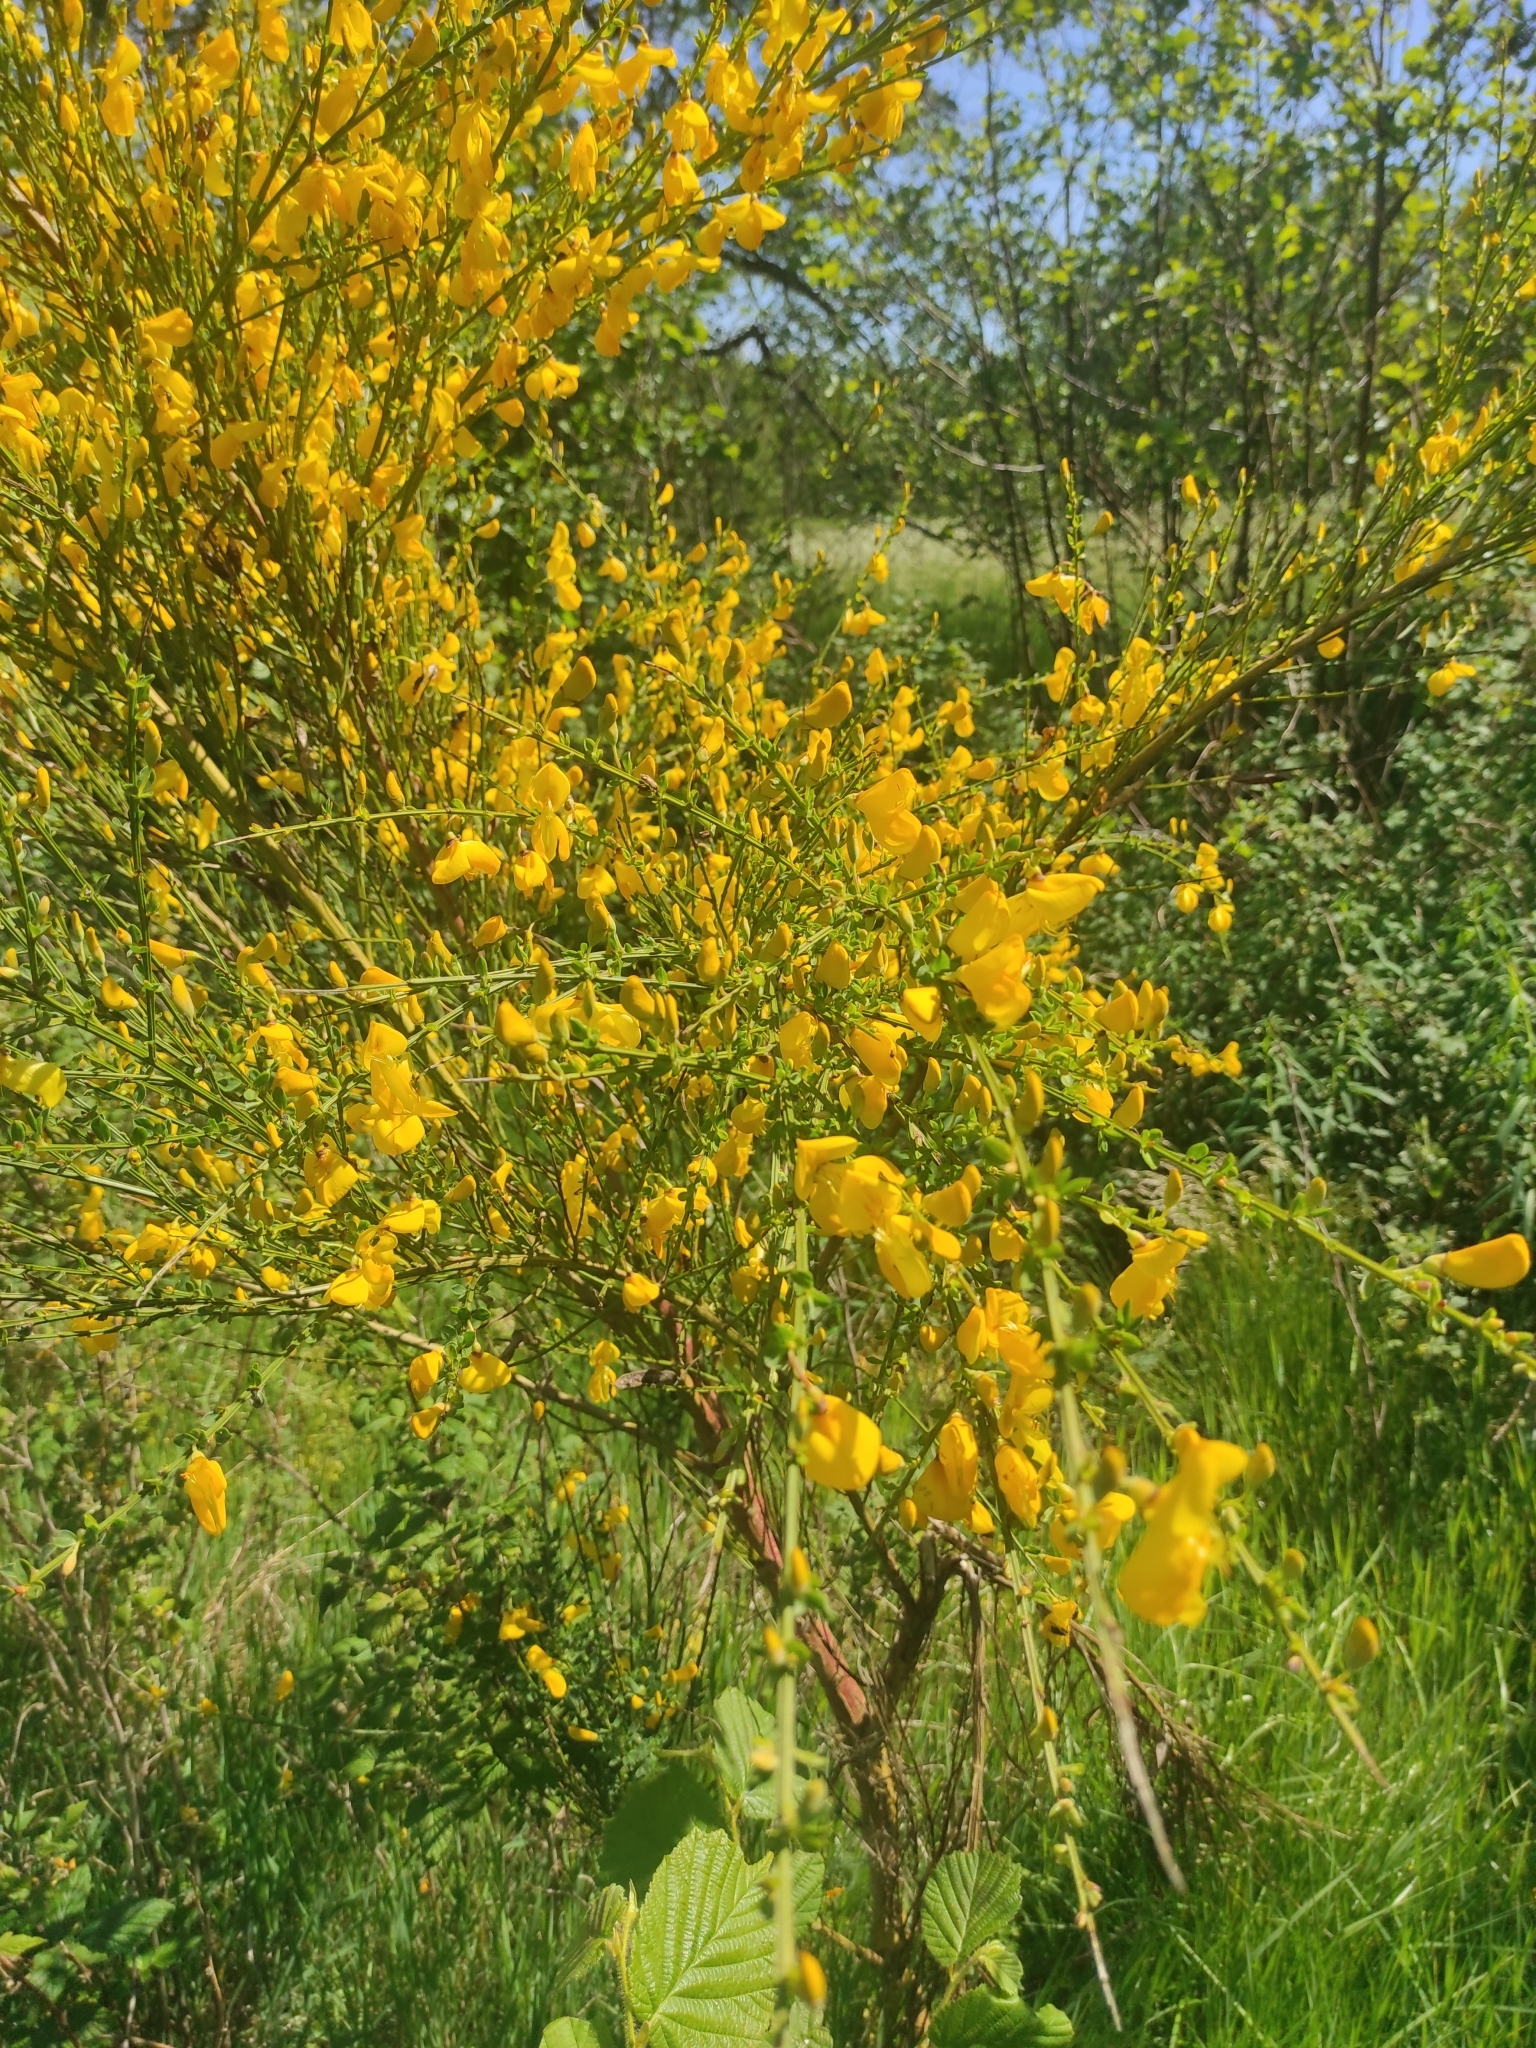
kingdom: Plantae
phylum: Tracheophyta
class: Magnoliopsida
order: Fabales
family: Fabaceae
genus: Cytisus
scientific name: Cytisus scoparius
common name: Scotch broom
